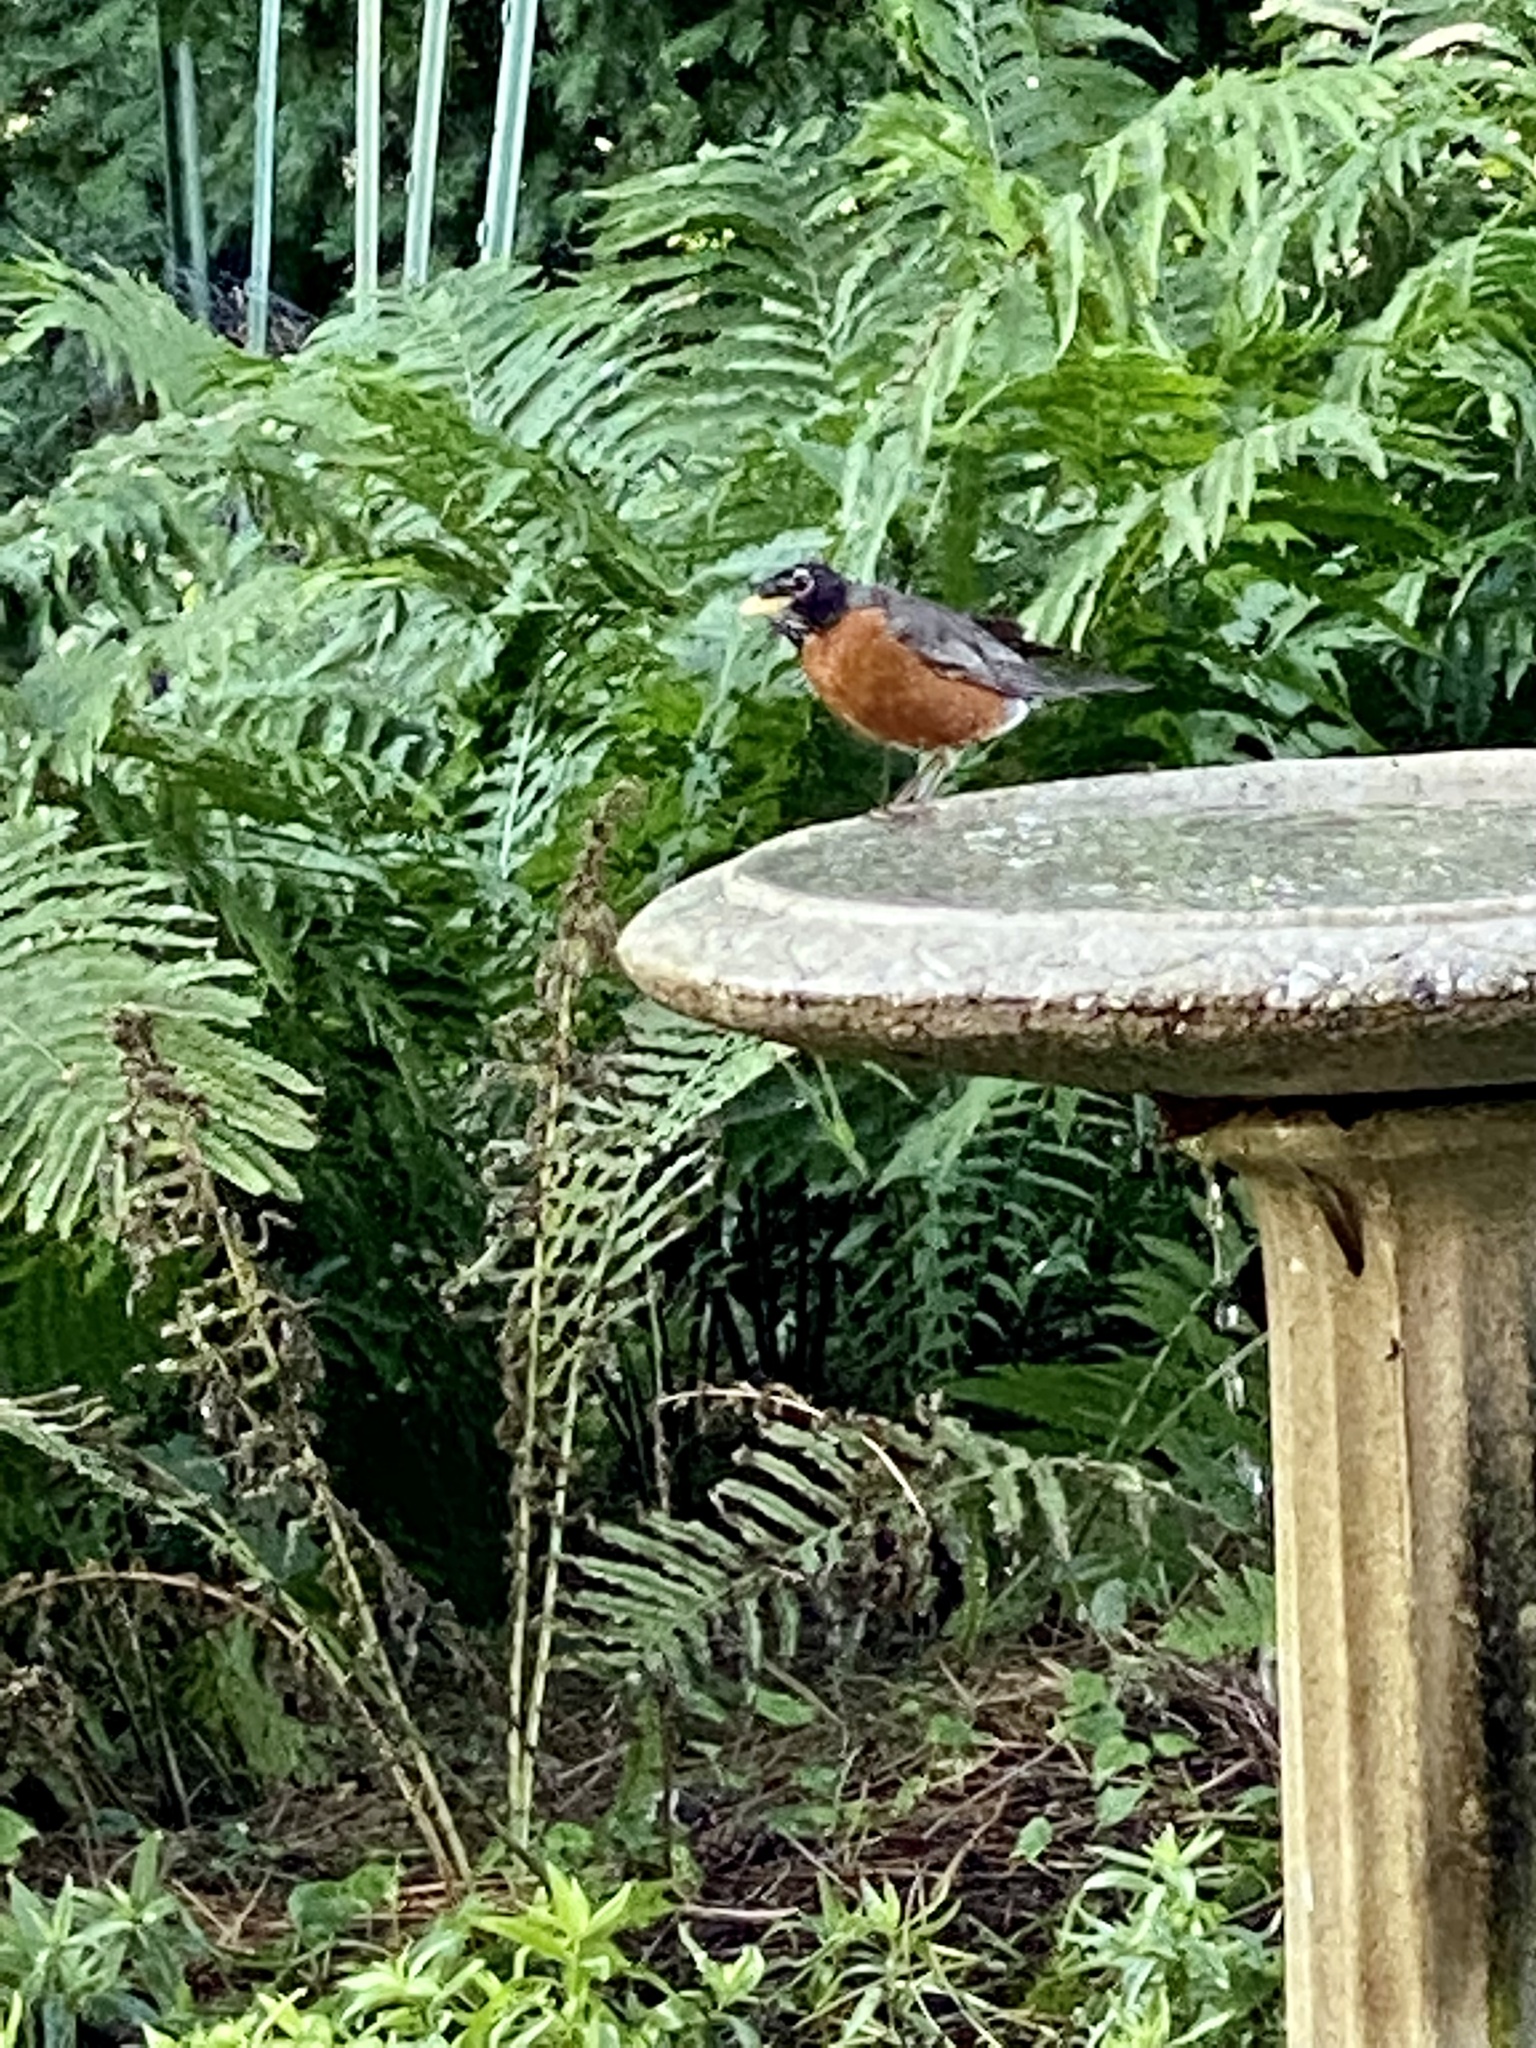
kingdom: Animalia
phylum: Chordata
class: Aves
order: Passeriformes
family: Turdidae
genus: Turdus
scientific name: Turdus migratorius
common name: American robin
